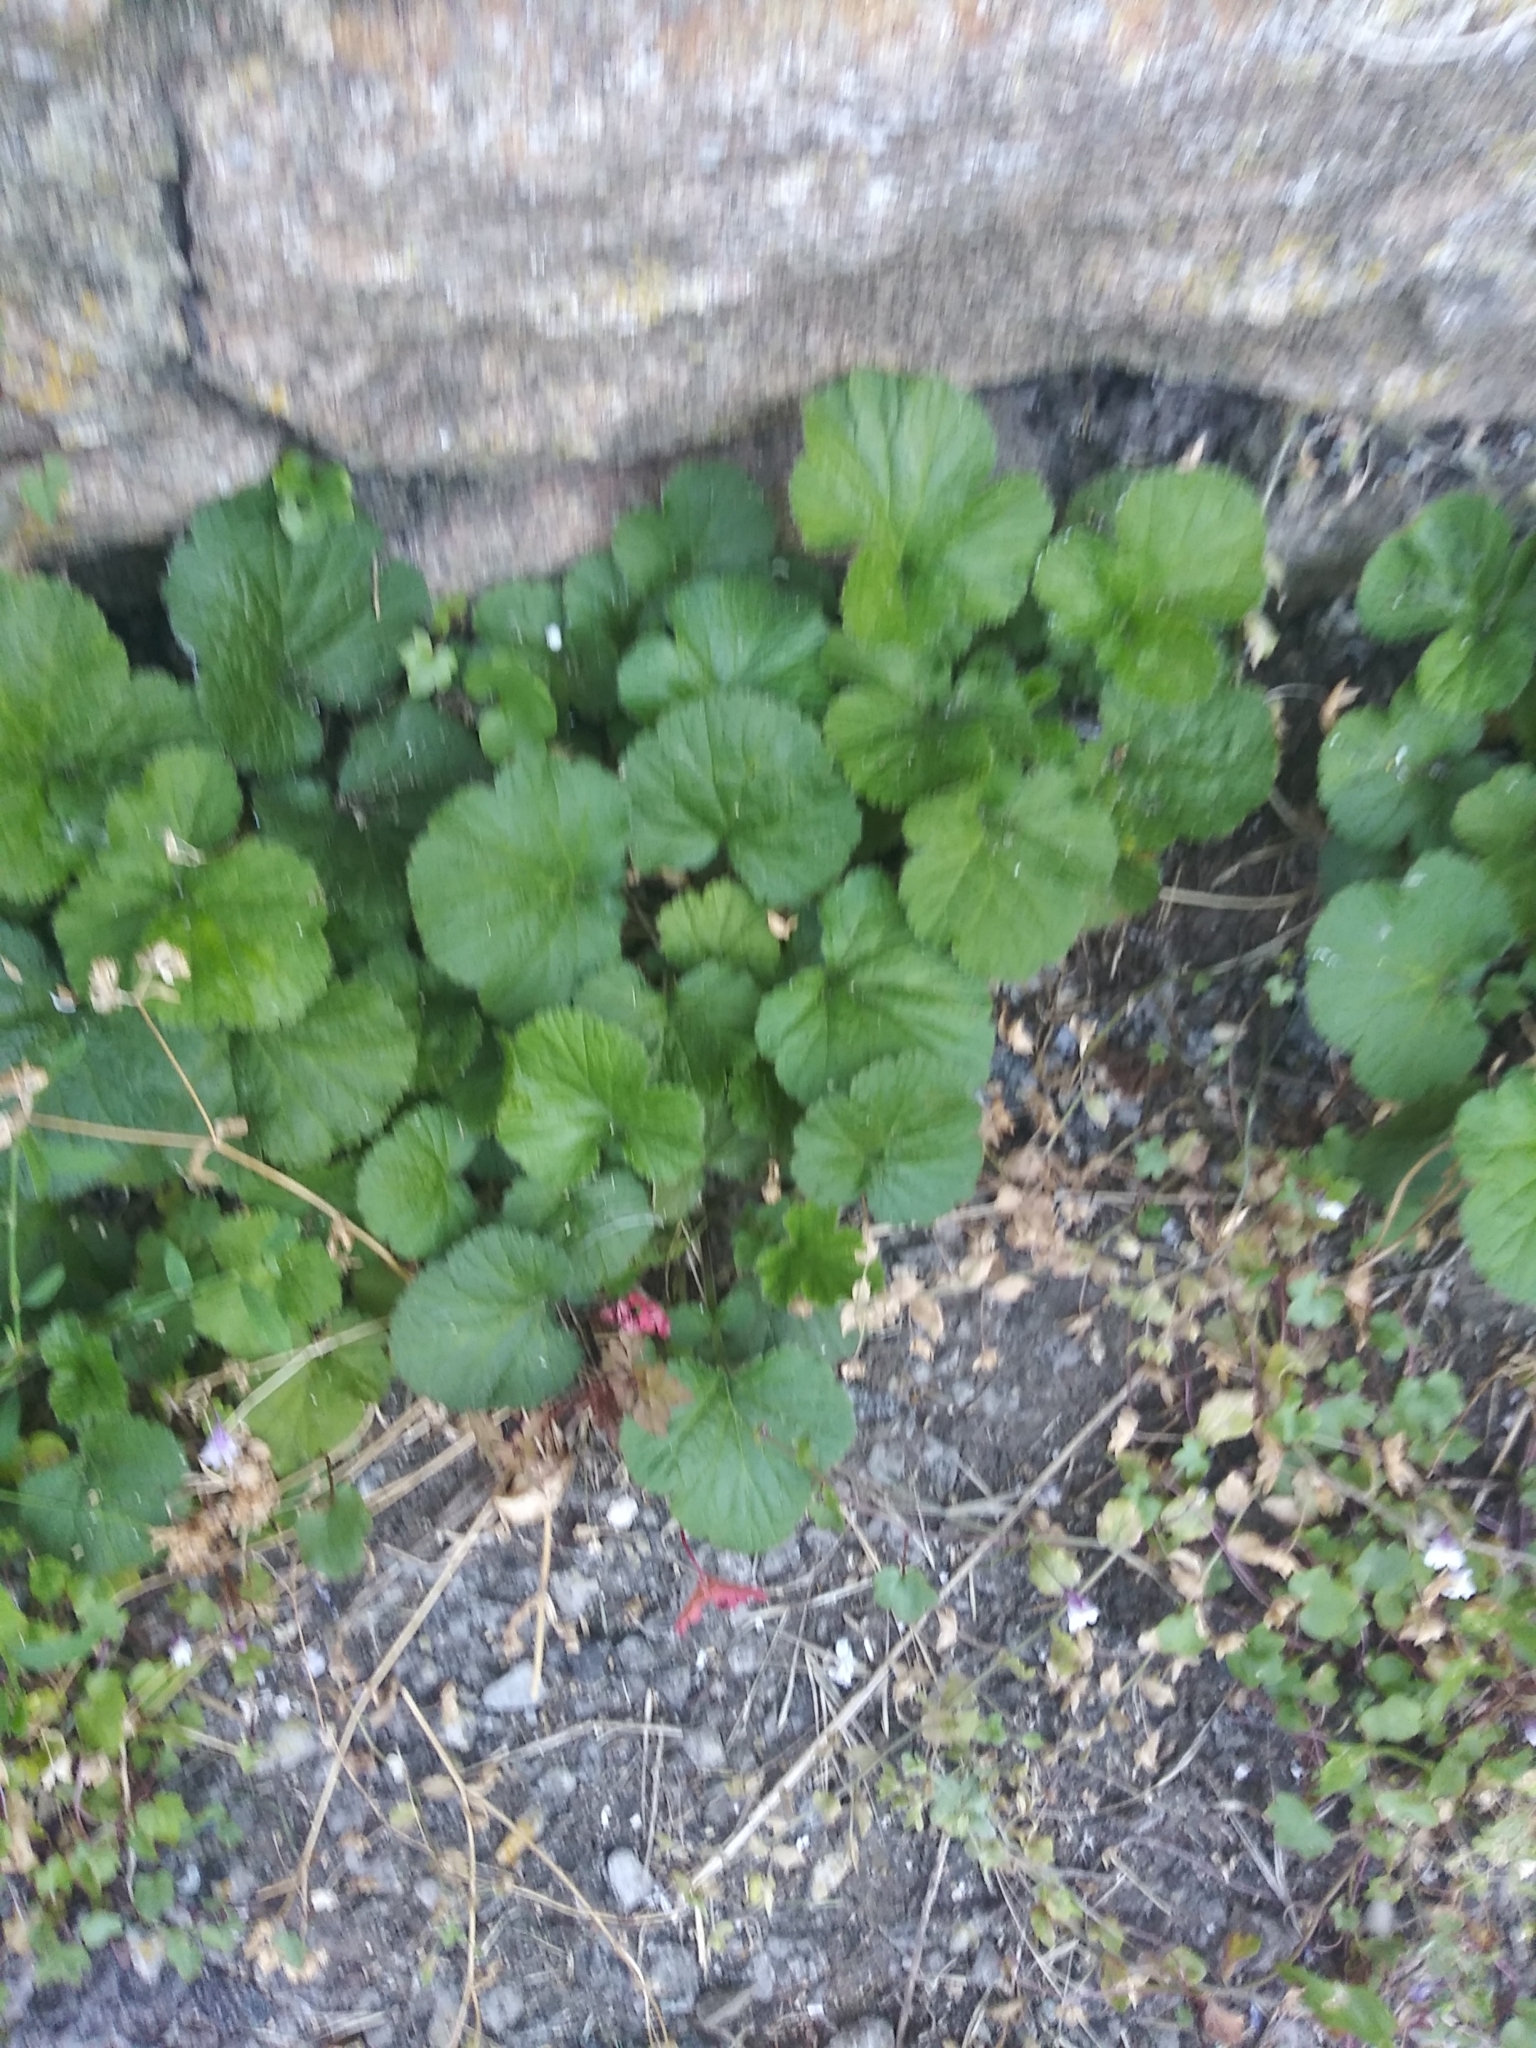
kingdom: Plantae
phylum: Tracheophyta
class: Magnoliopsida
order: Rosales
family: Rosaceae
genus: Geum
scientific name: Geum urbanum
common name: Wood avens
